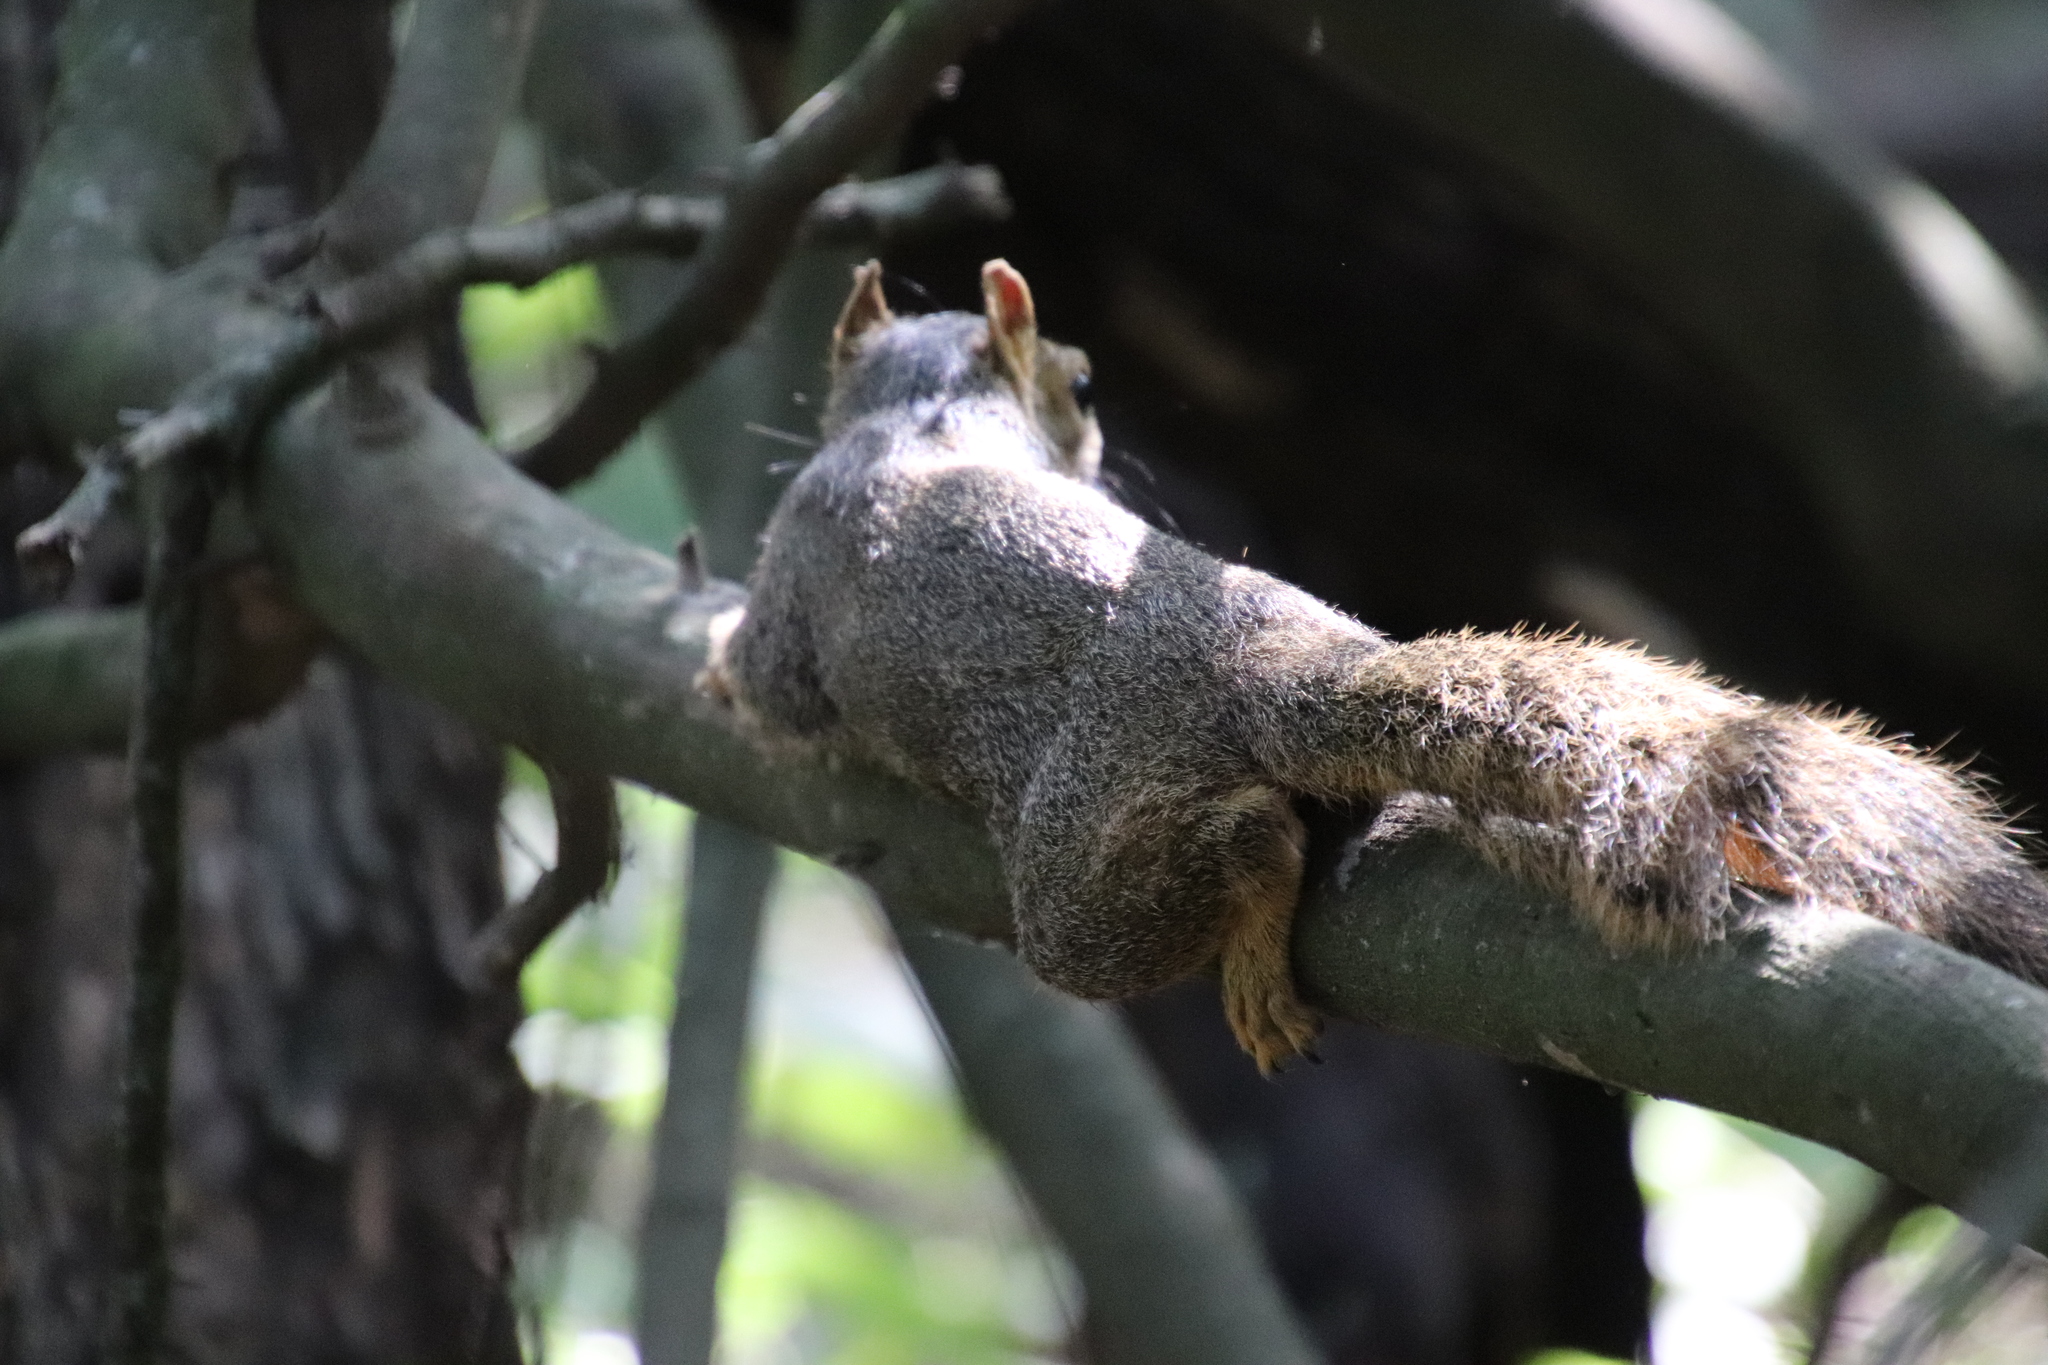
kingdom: Animalia
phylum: Chordata
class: Mammalia
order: Rodentia
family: Sciuridae
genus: Sciurus
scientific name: Sciurus niger
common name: Fox squirrel
